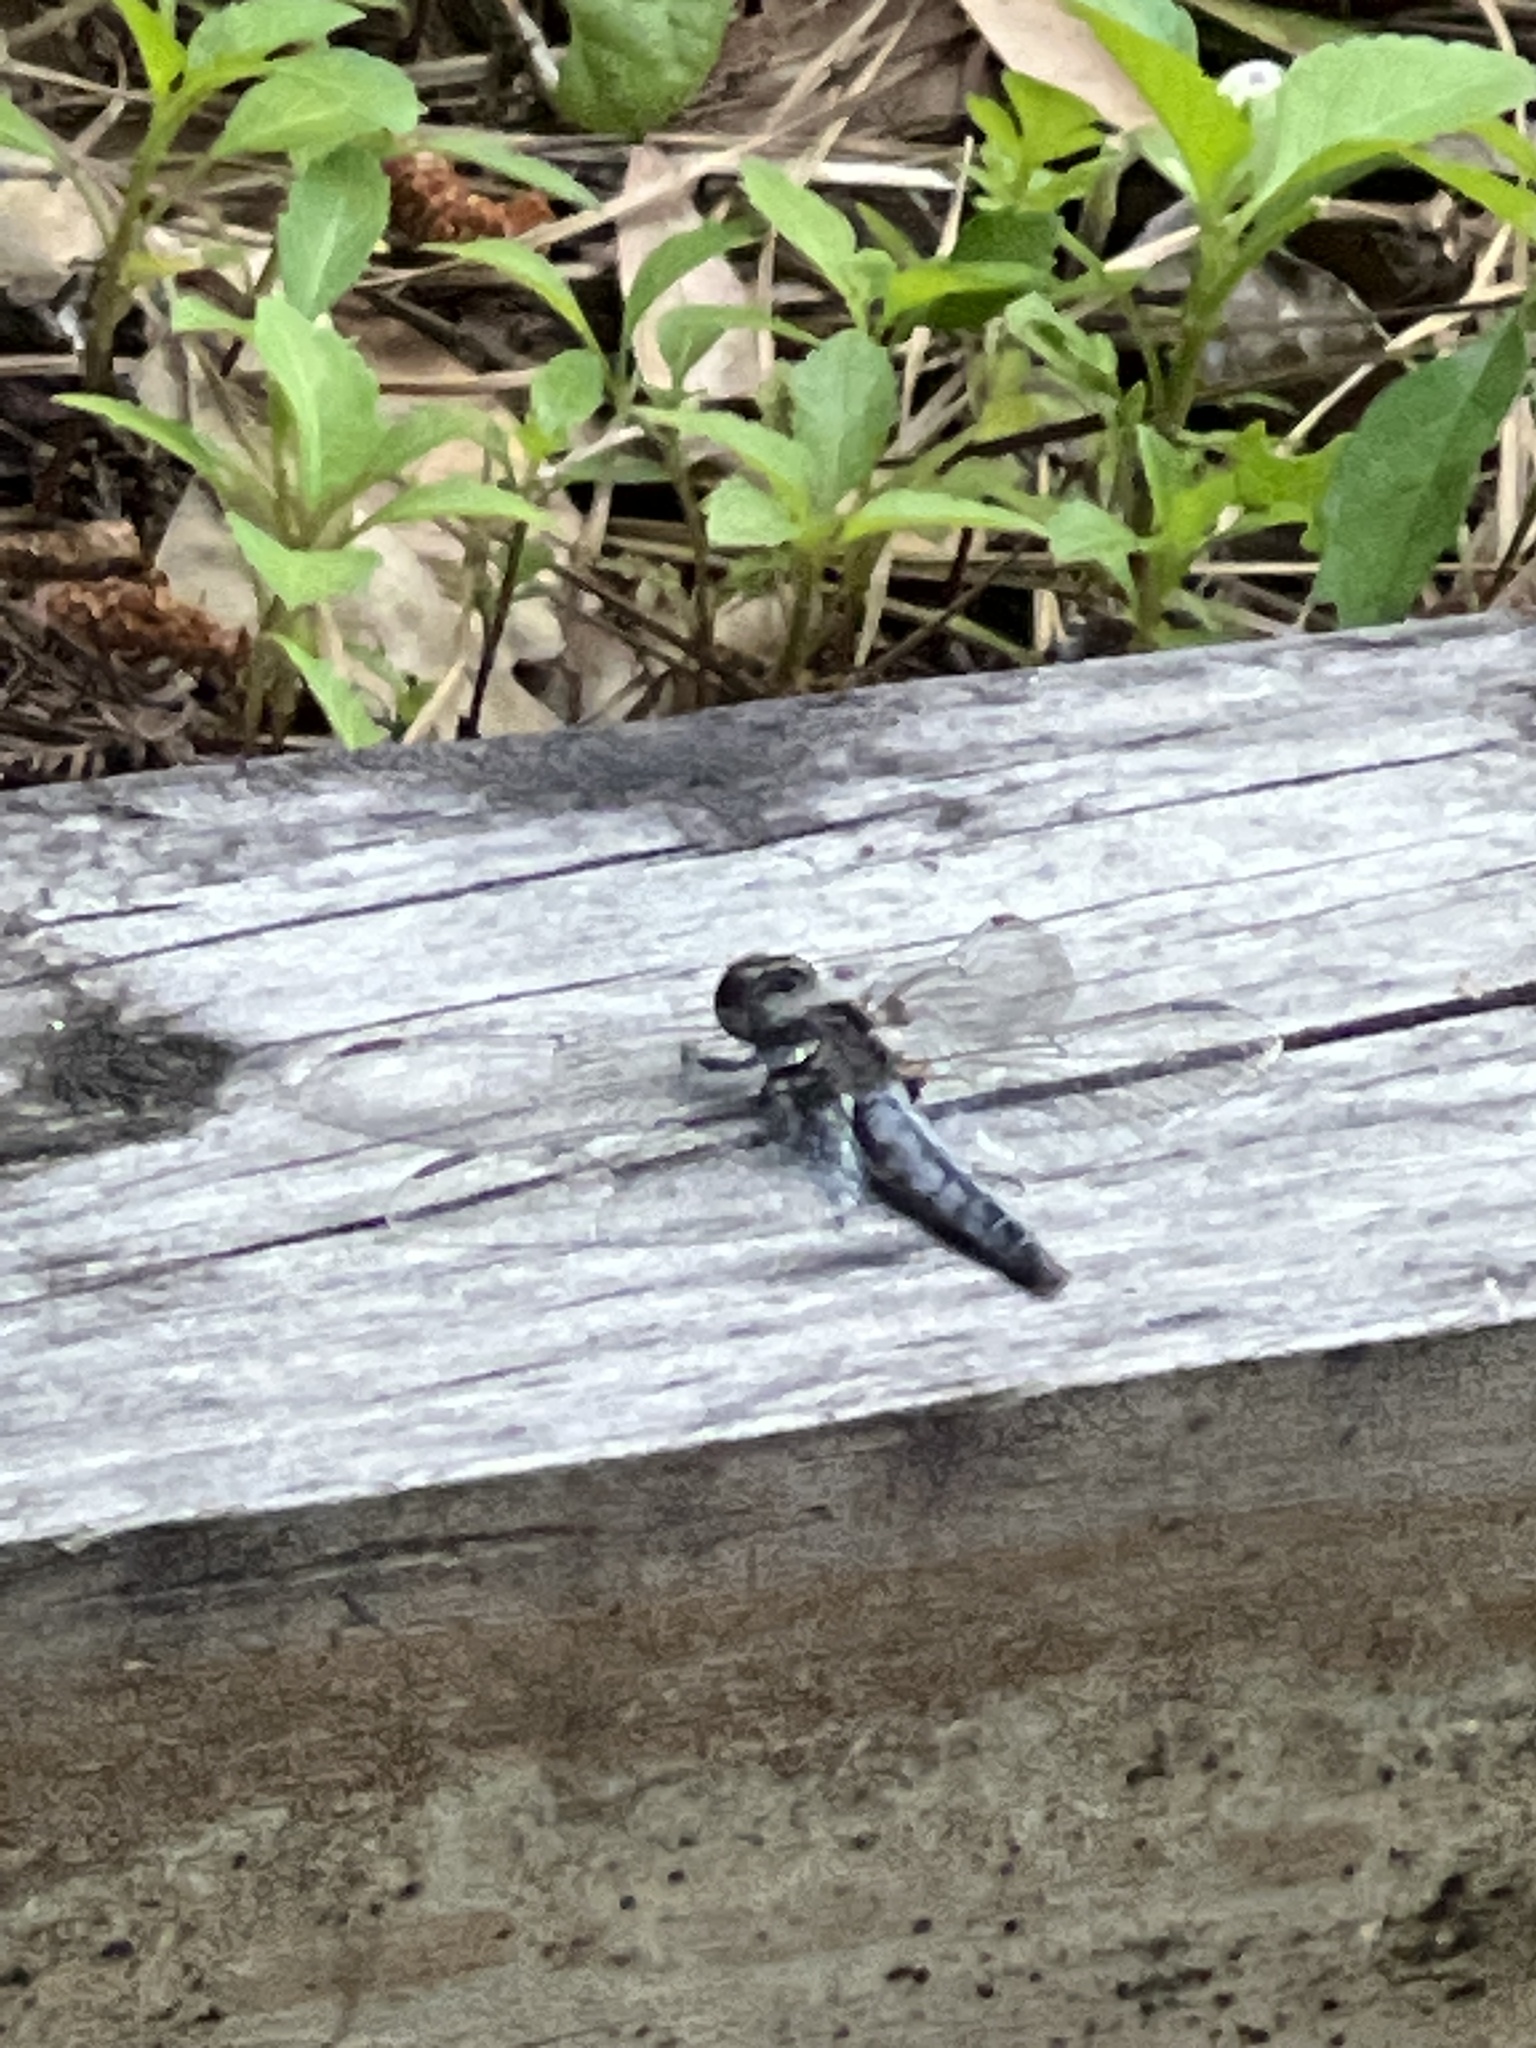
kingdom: Animalia
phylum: Arthropoda
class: Insecta
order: Odonata
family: Libellulidae
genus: Ladona
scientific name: Ladona deplanata
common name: Blue corporal
